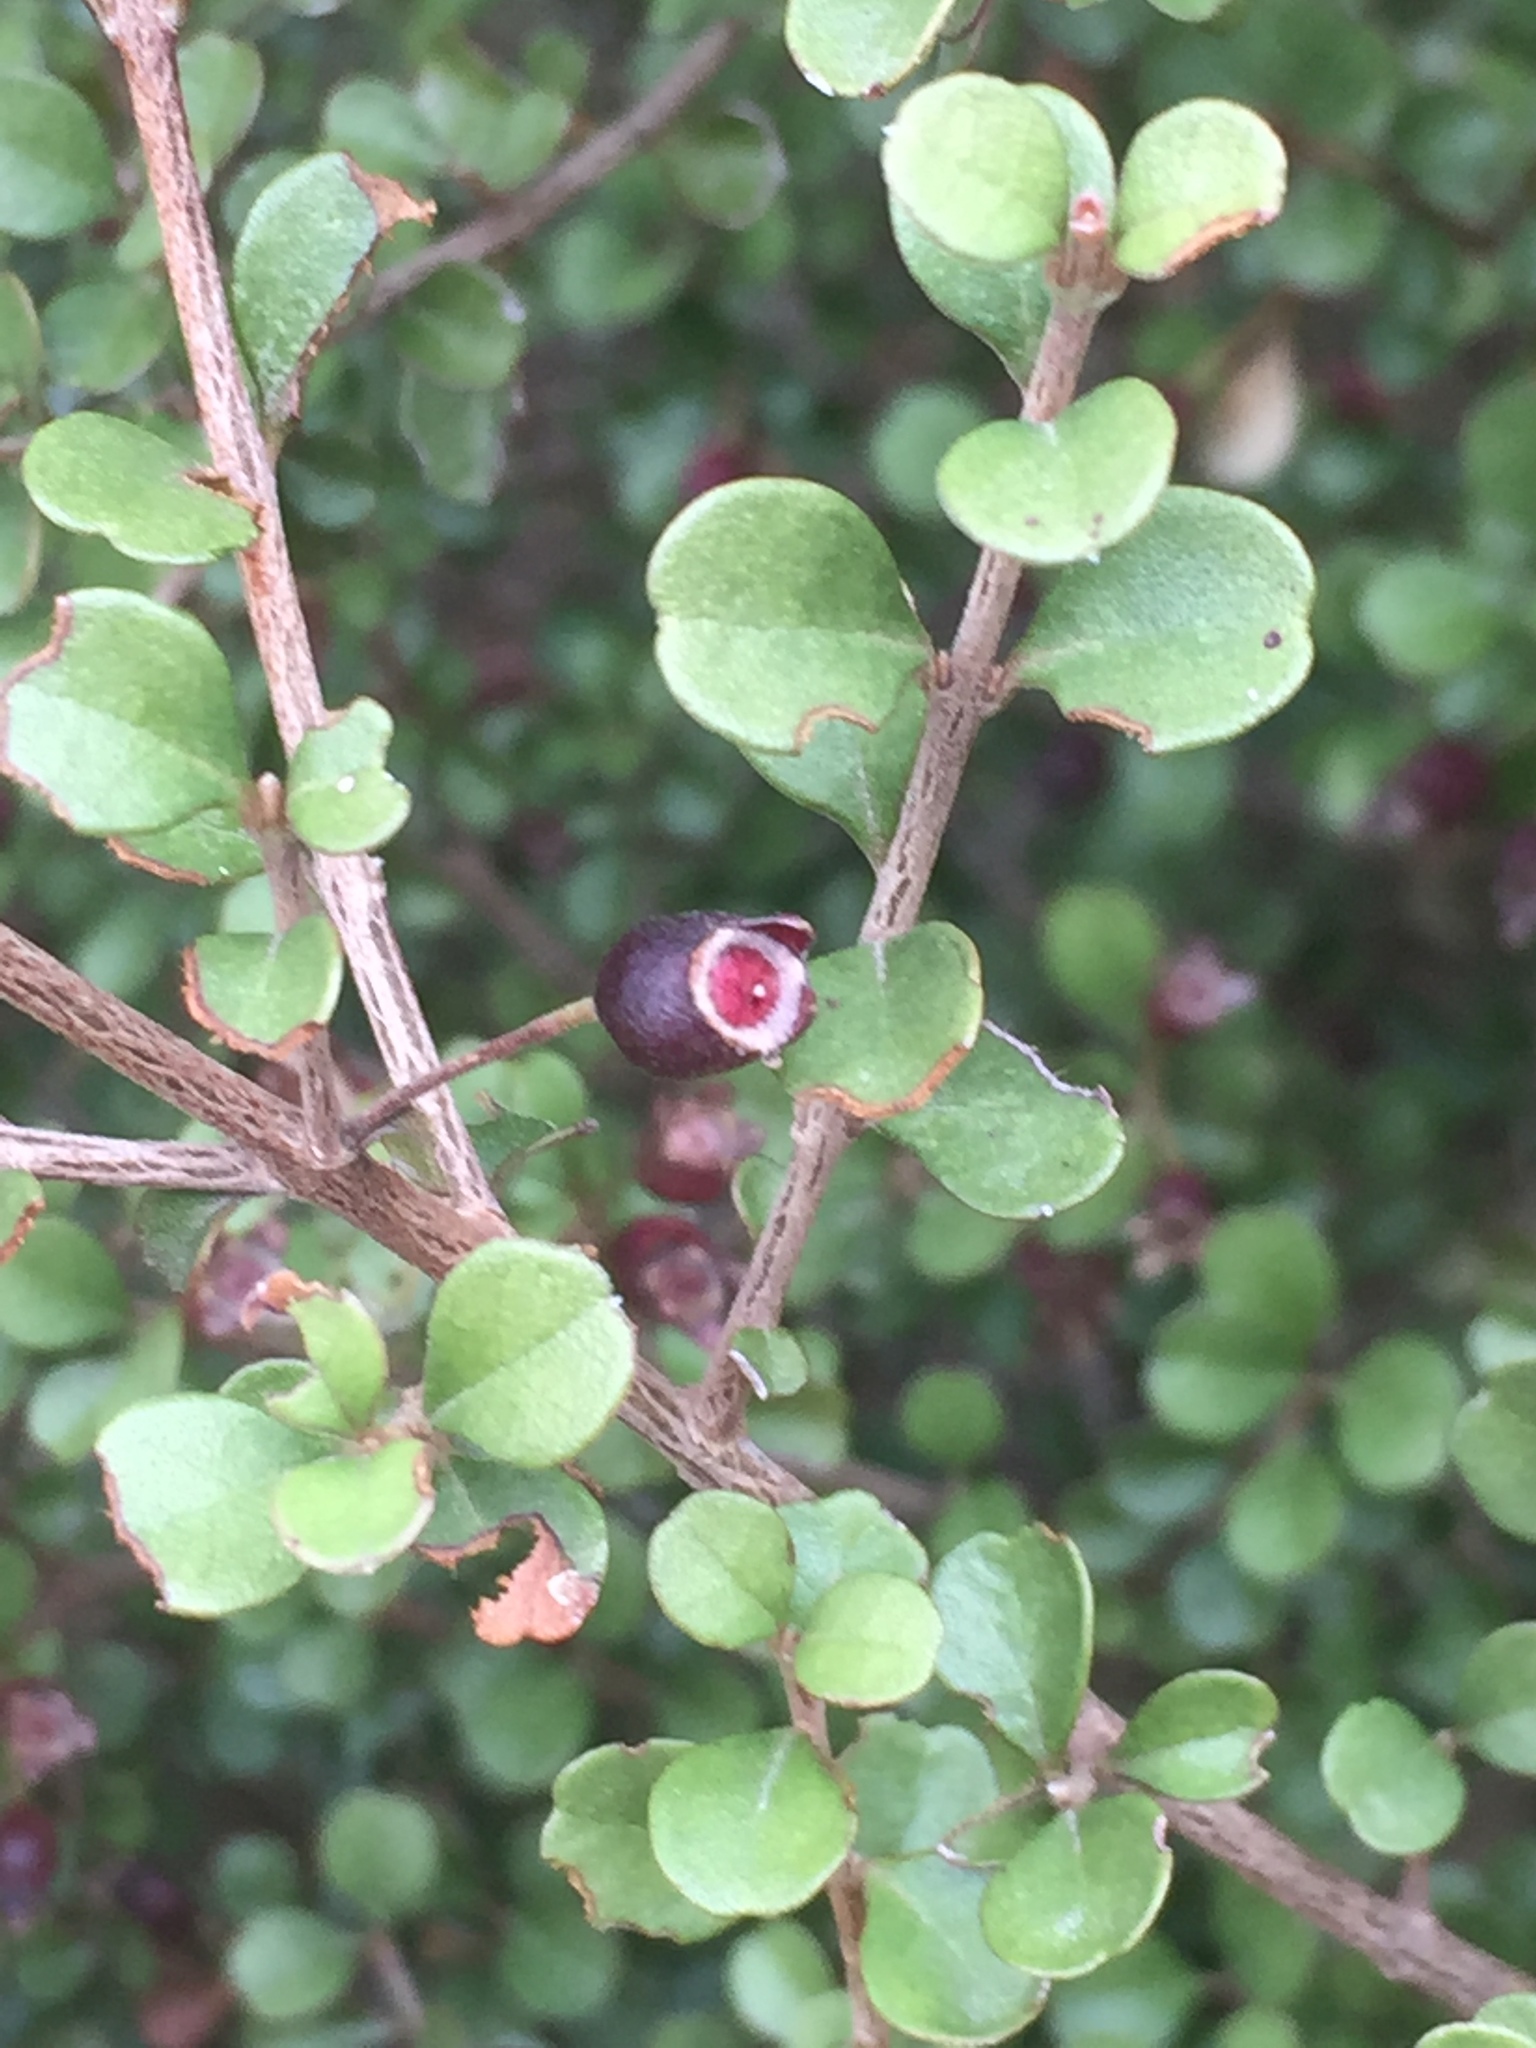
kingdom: Plantae
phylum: Tracheophyta
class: Magnoliopsida
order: Myrtales
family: Myrtaceae
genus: Lophomyrtus
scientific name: Lophomyrtus obcordata
